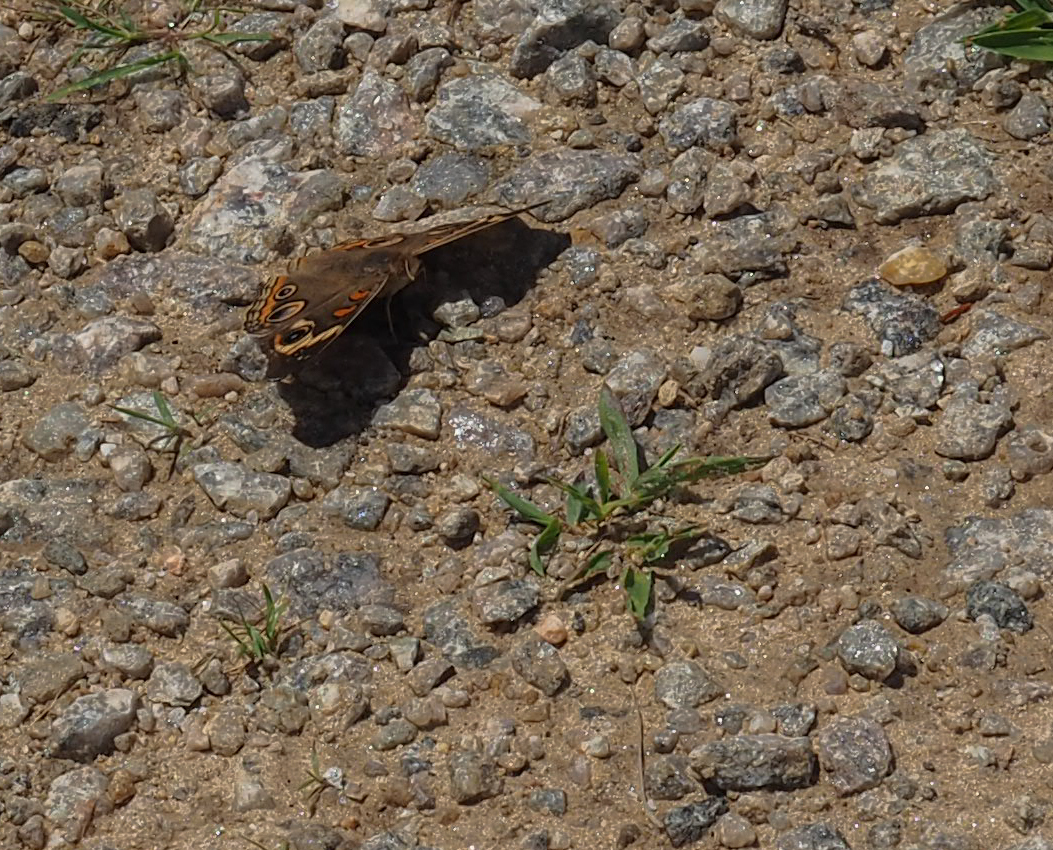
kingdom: Animalia
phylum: Arthropoda
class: Insecta
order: Lepidoptera
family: Nymphalidae
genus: Junonia
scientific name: Junonia coenia
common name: Common buckeye
